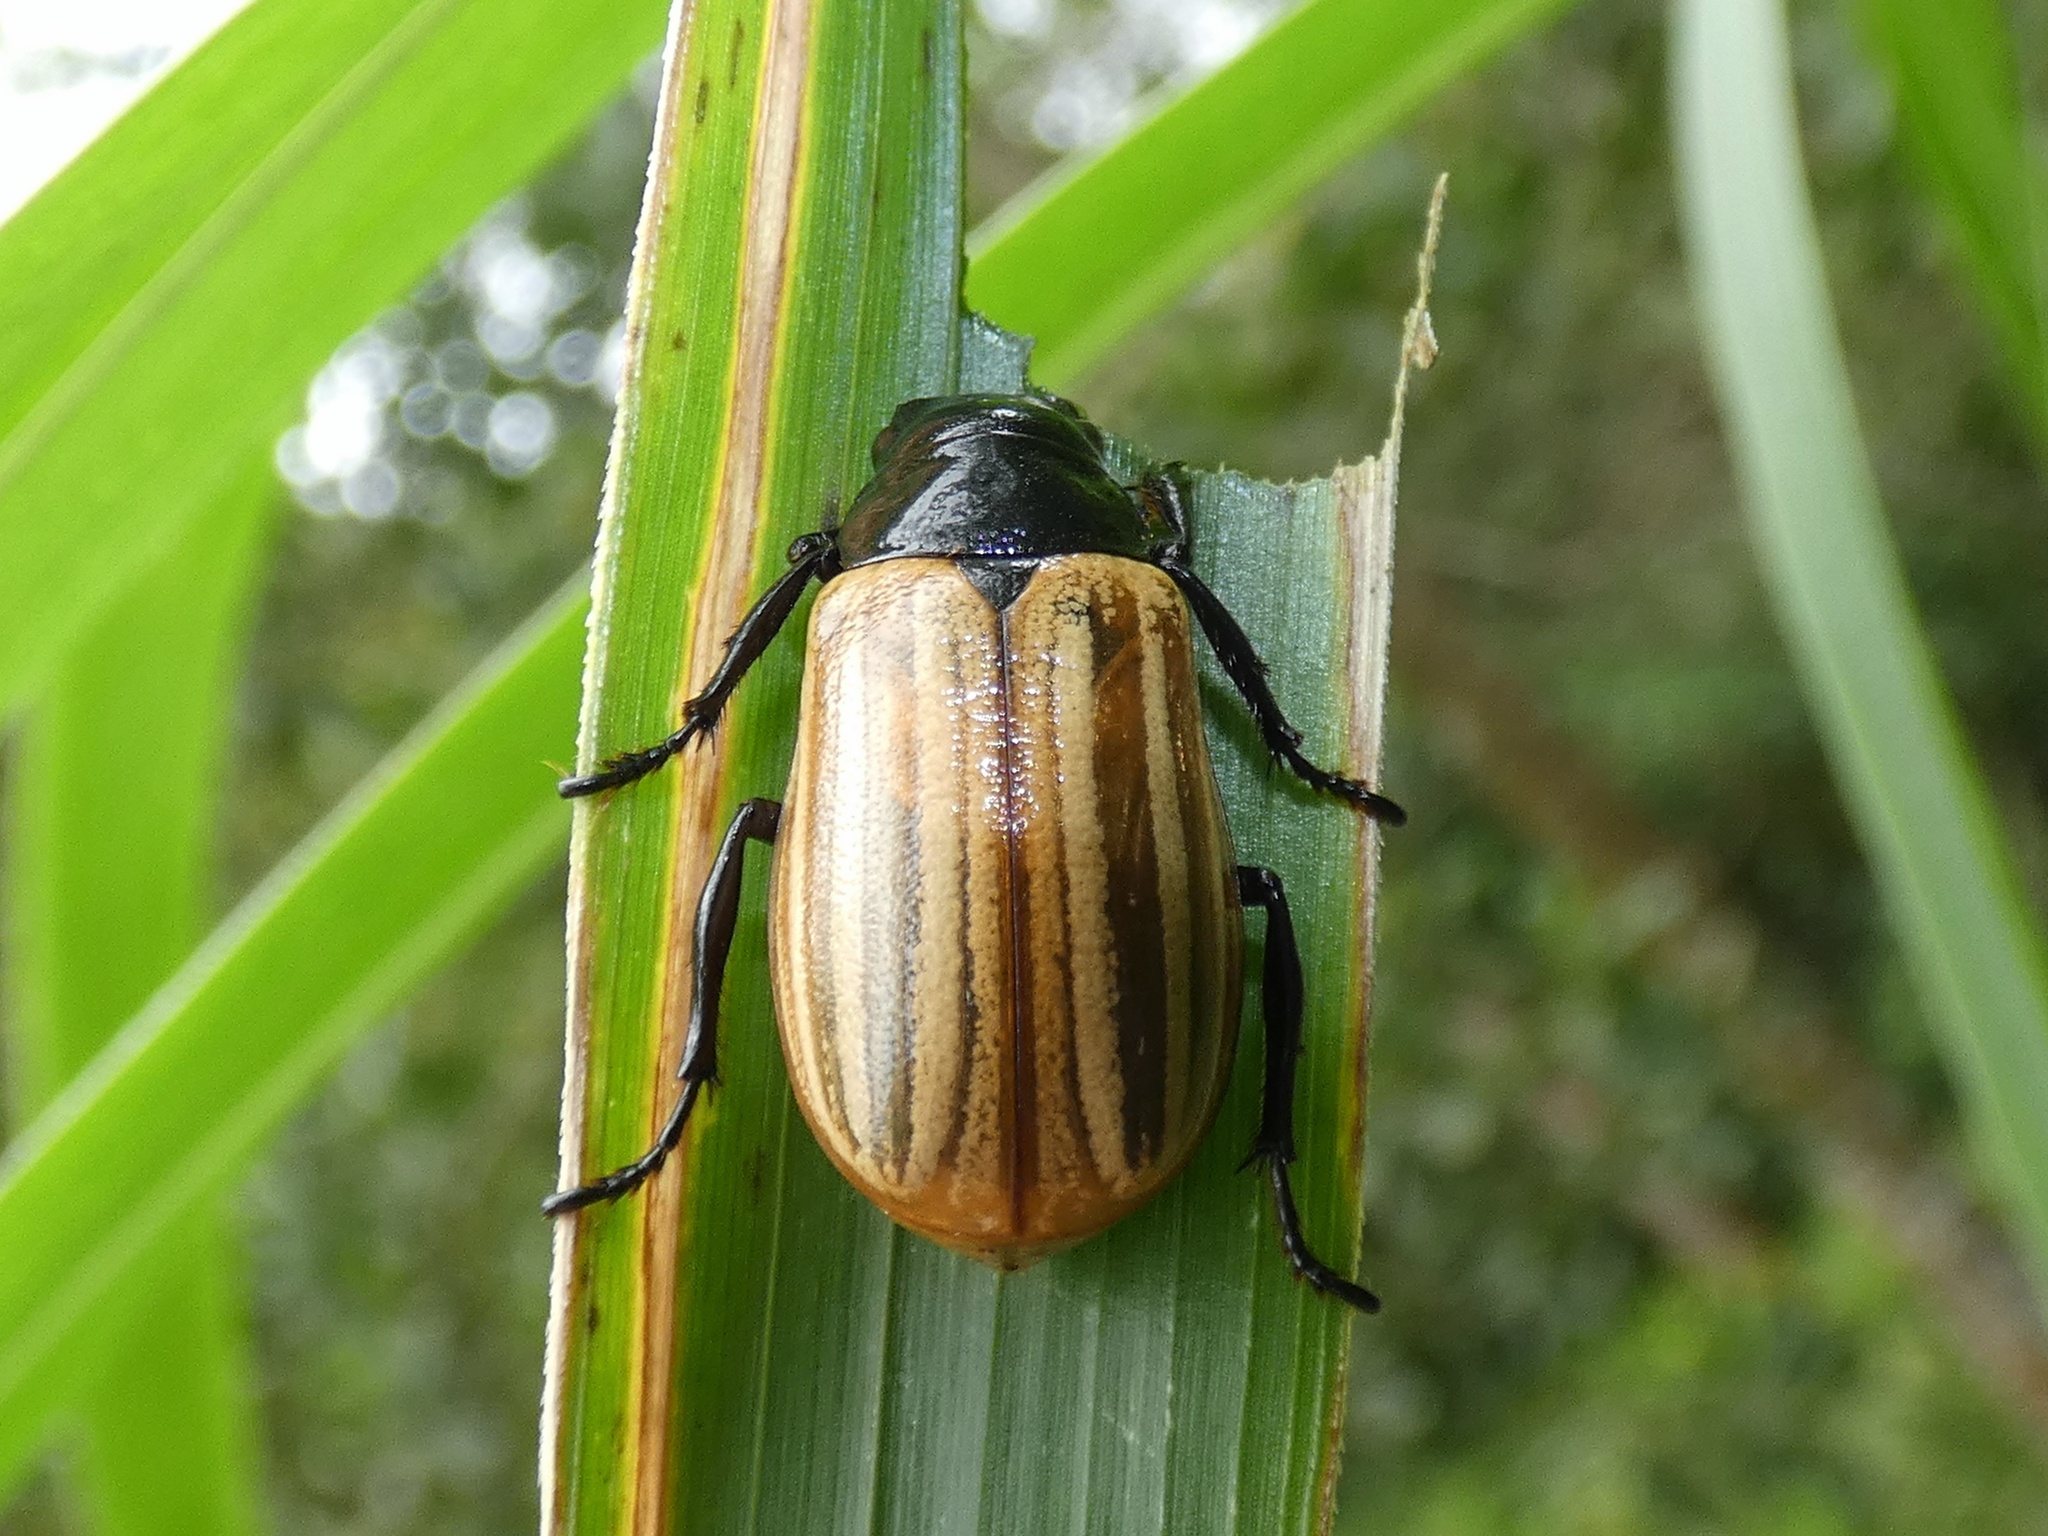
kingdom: Animalia
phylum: Arthropoda
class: Insecta
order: Coleoptera
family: Scarabaeidae
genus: Bolax
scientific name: Bolax magna
